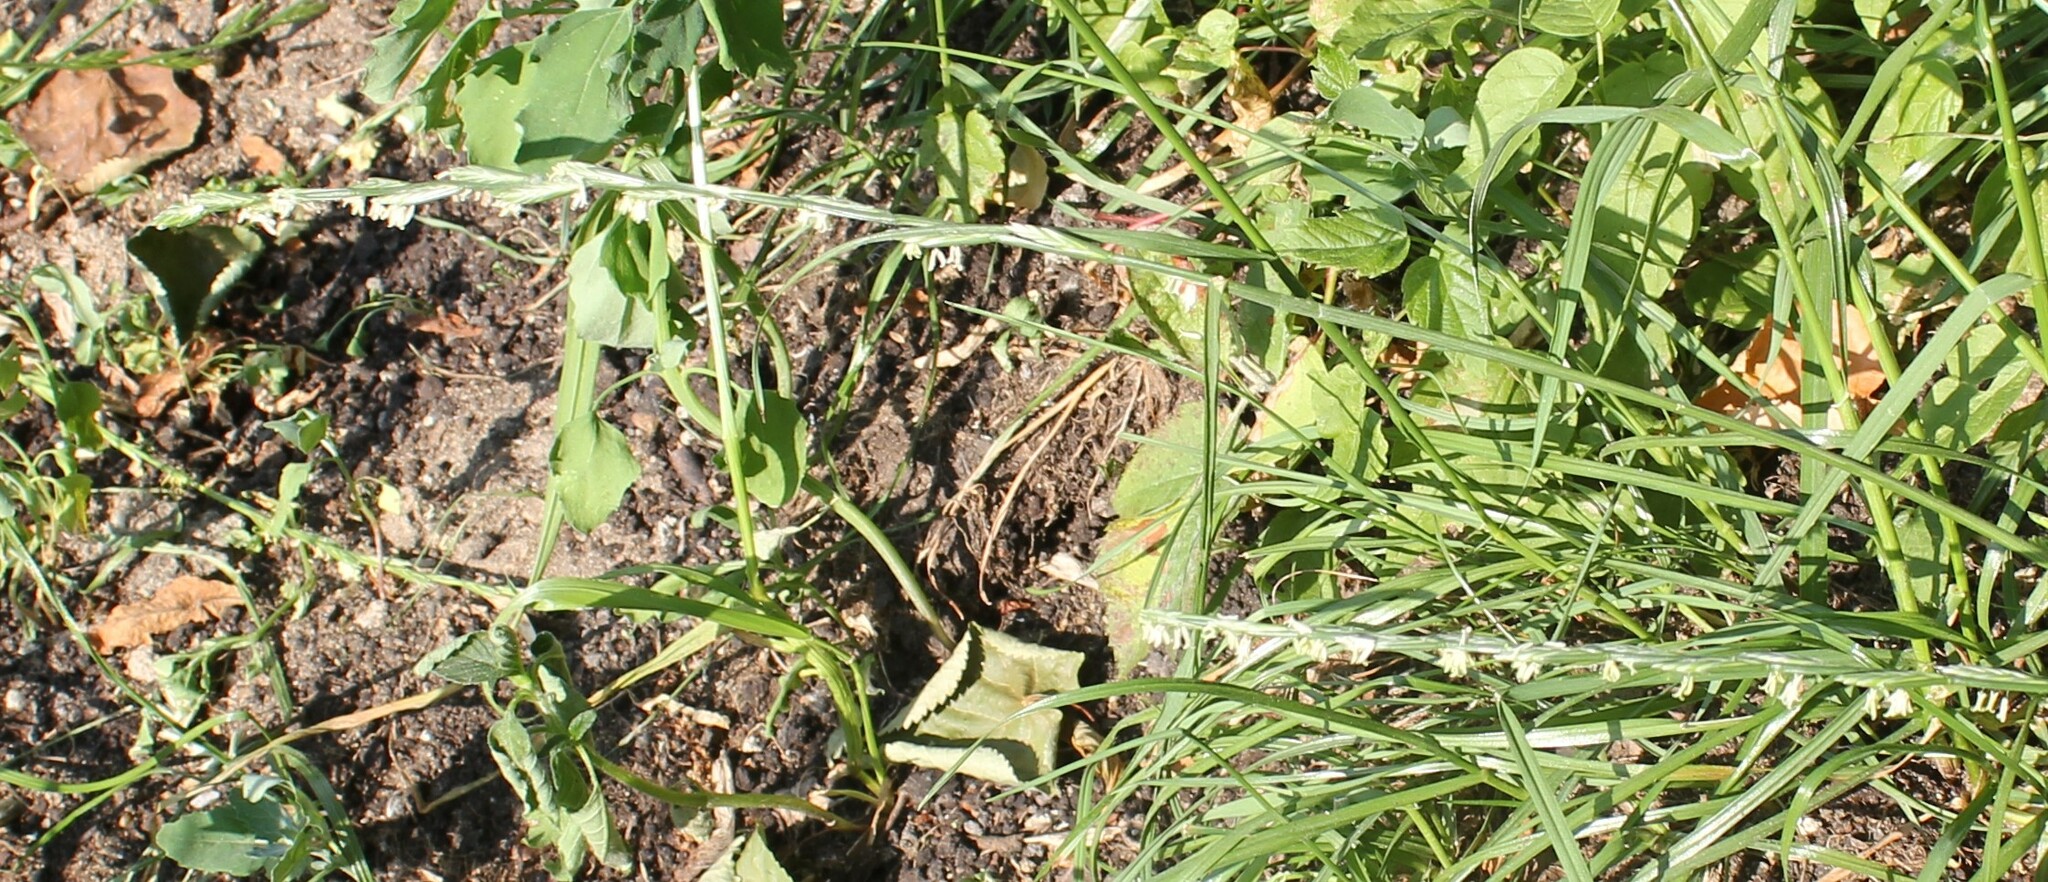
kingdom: Plantae
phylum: Tracheophyta
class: Liliopsida
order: Poales
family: Poaceae
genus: Lolium
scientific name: Lolium perenne
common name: Perennial ryegrass
